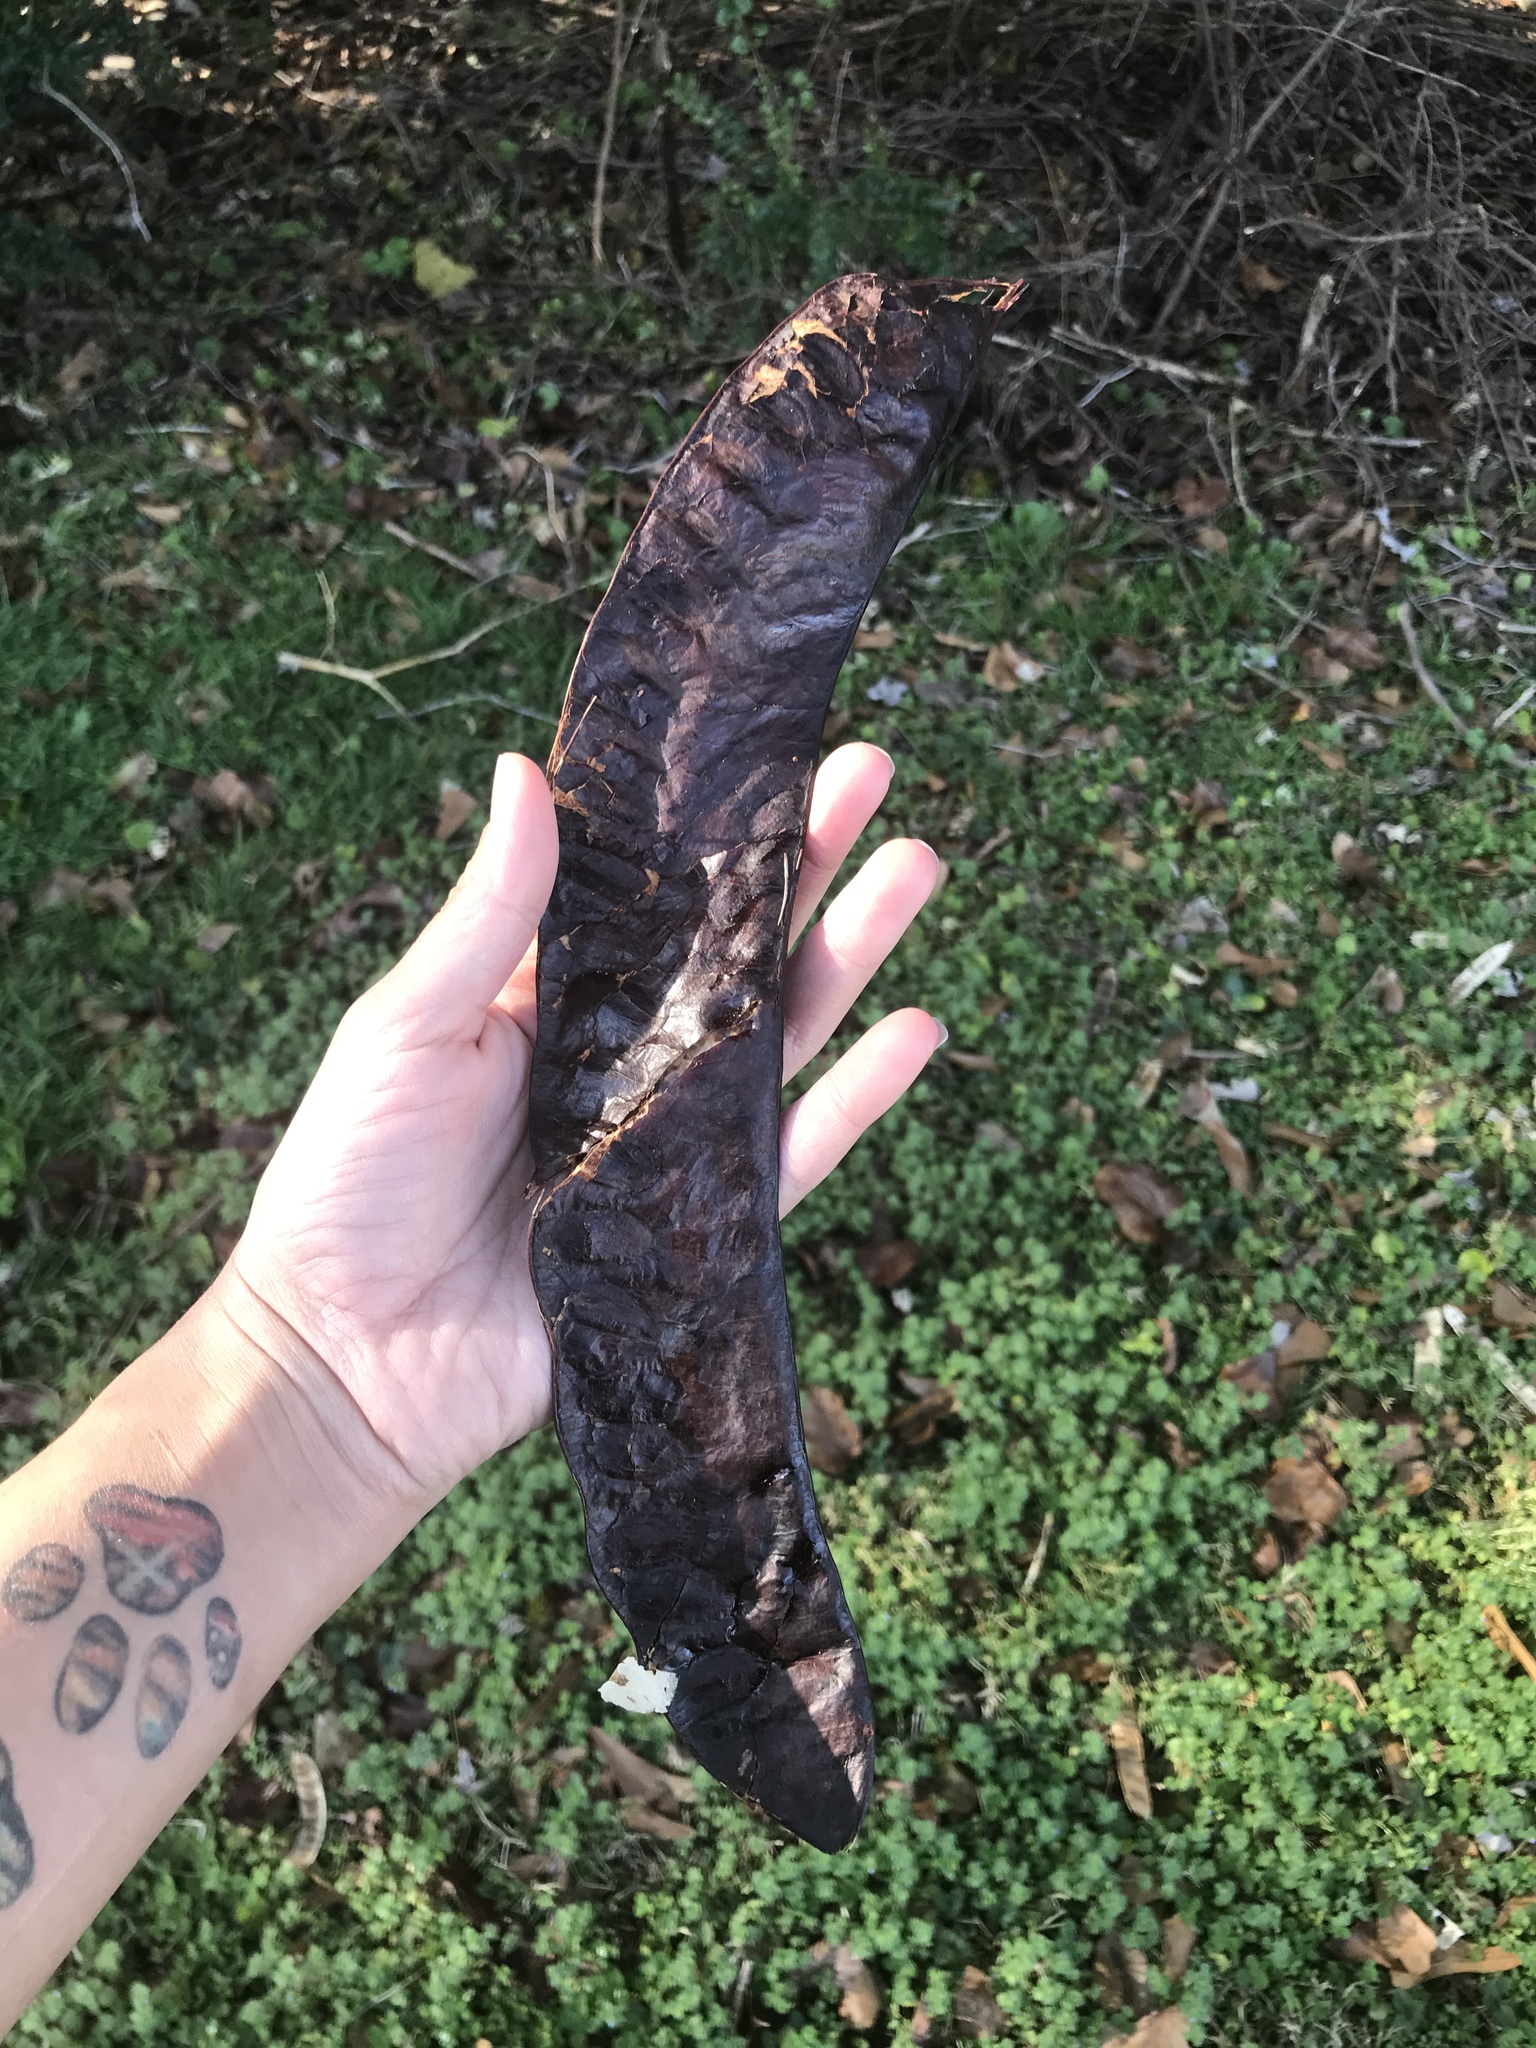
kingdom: Plantae
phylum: Tracheophyta
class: Magnoliopsida
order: Fabales
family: Fabaceae
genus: Gleditsia
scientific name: Gleditsia triacanthos
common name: Common honeylocust
